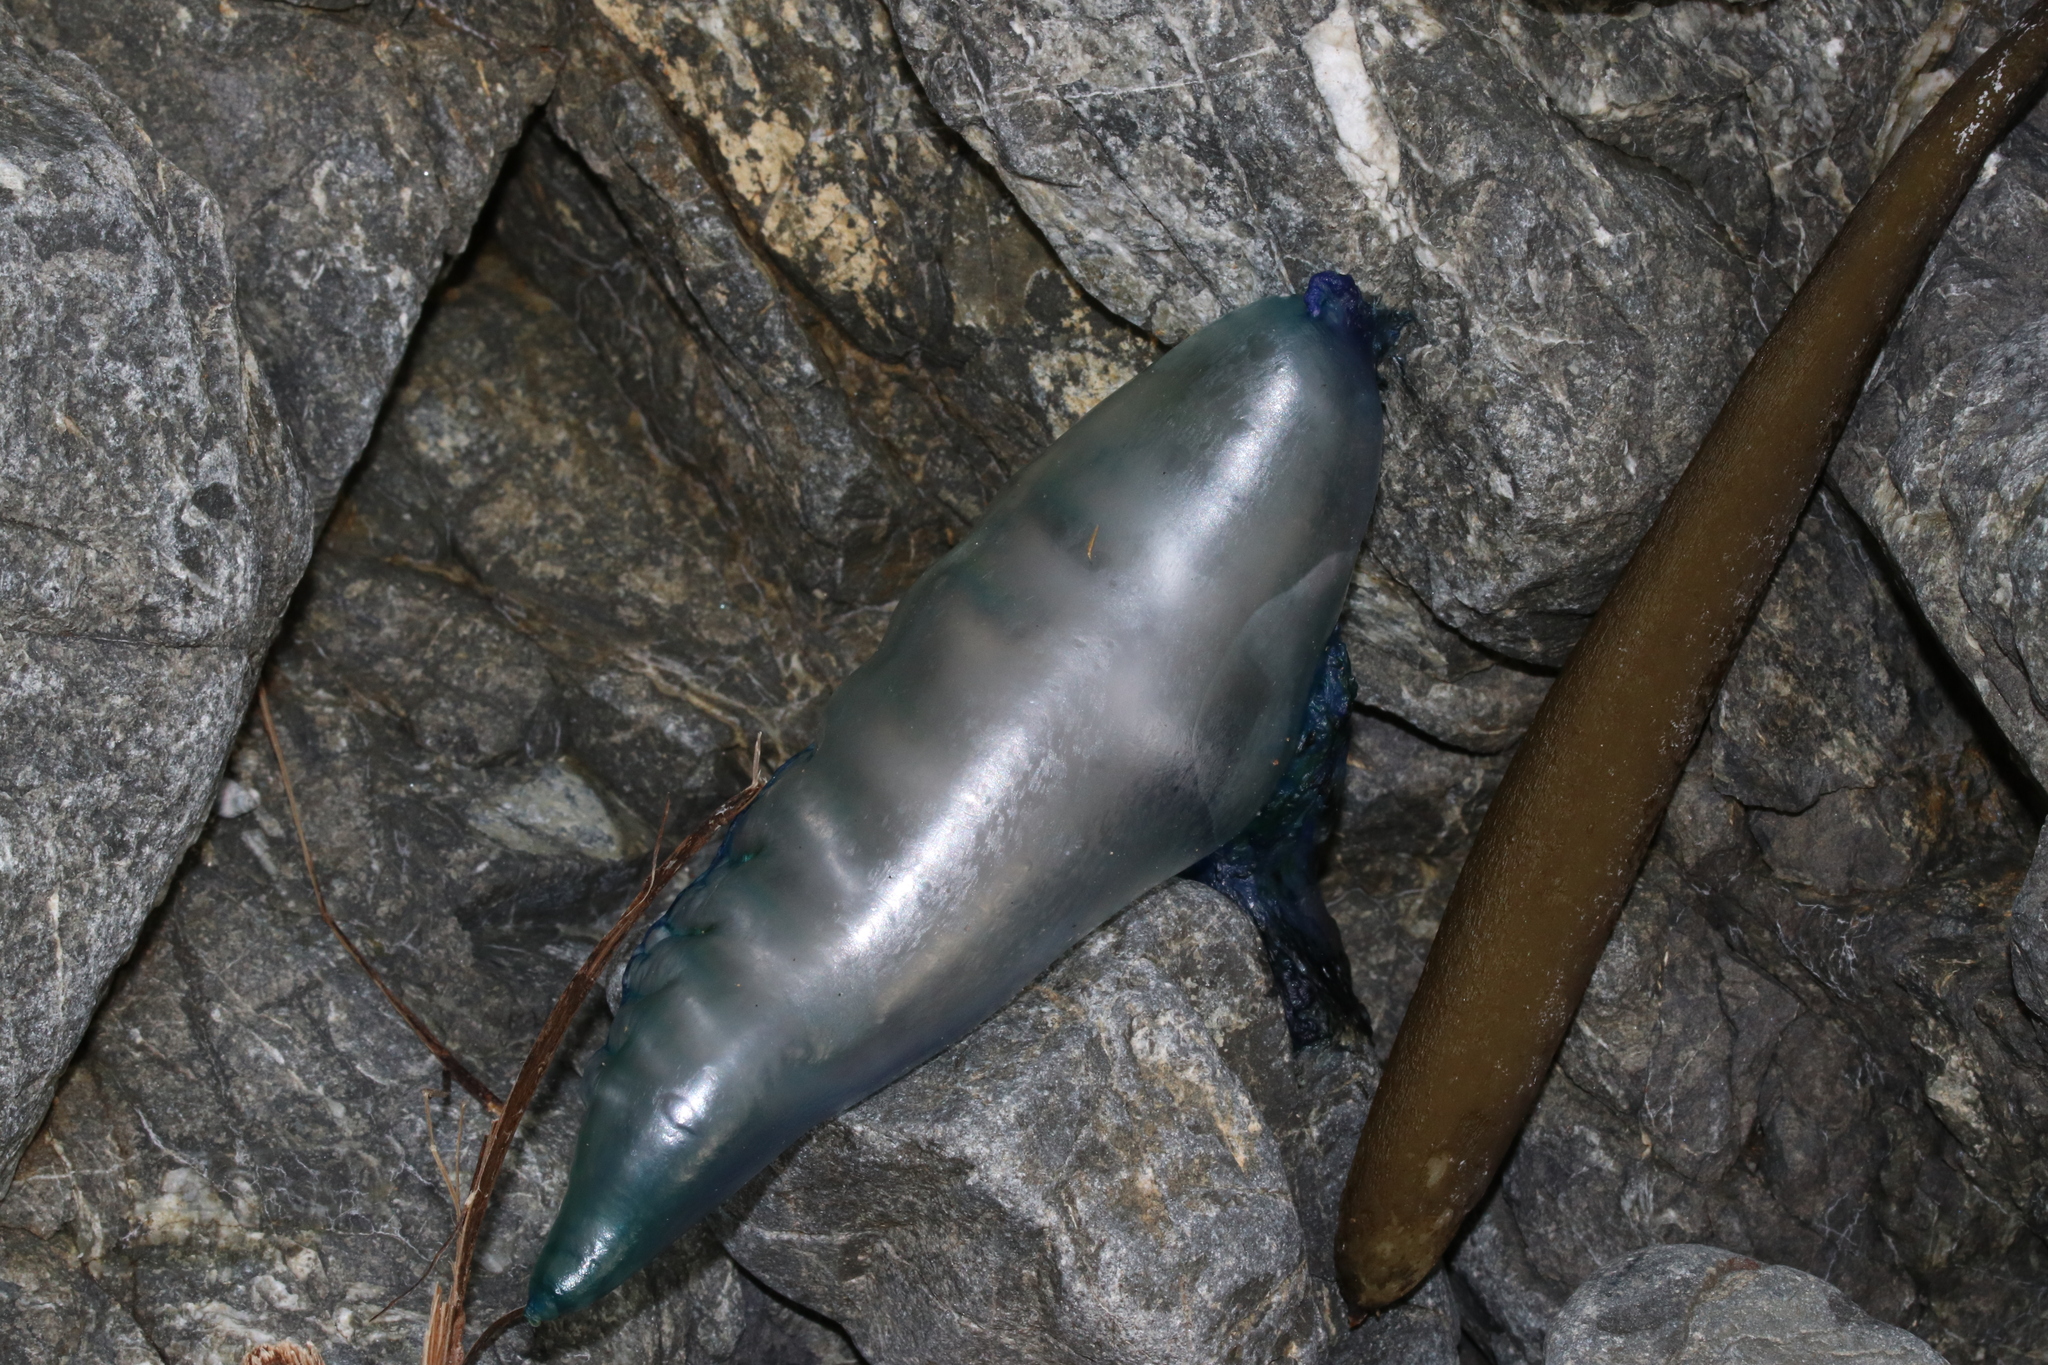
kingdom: Animalia
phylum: Cnidaria
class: Hydrozoa
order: Siphonophorae
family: Physaliidae
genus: Physalia
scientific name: Physalia physalis
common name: Portuguese man-of-war
